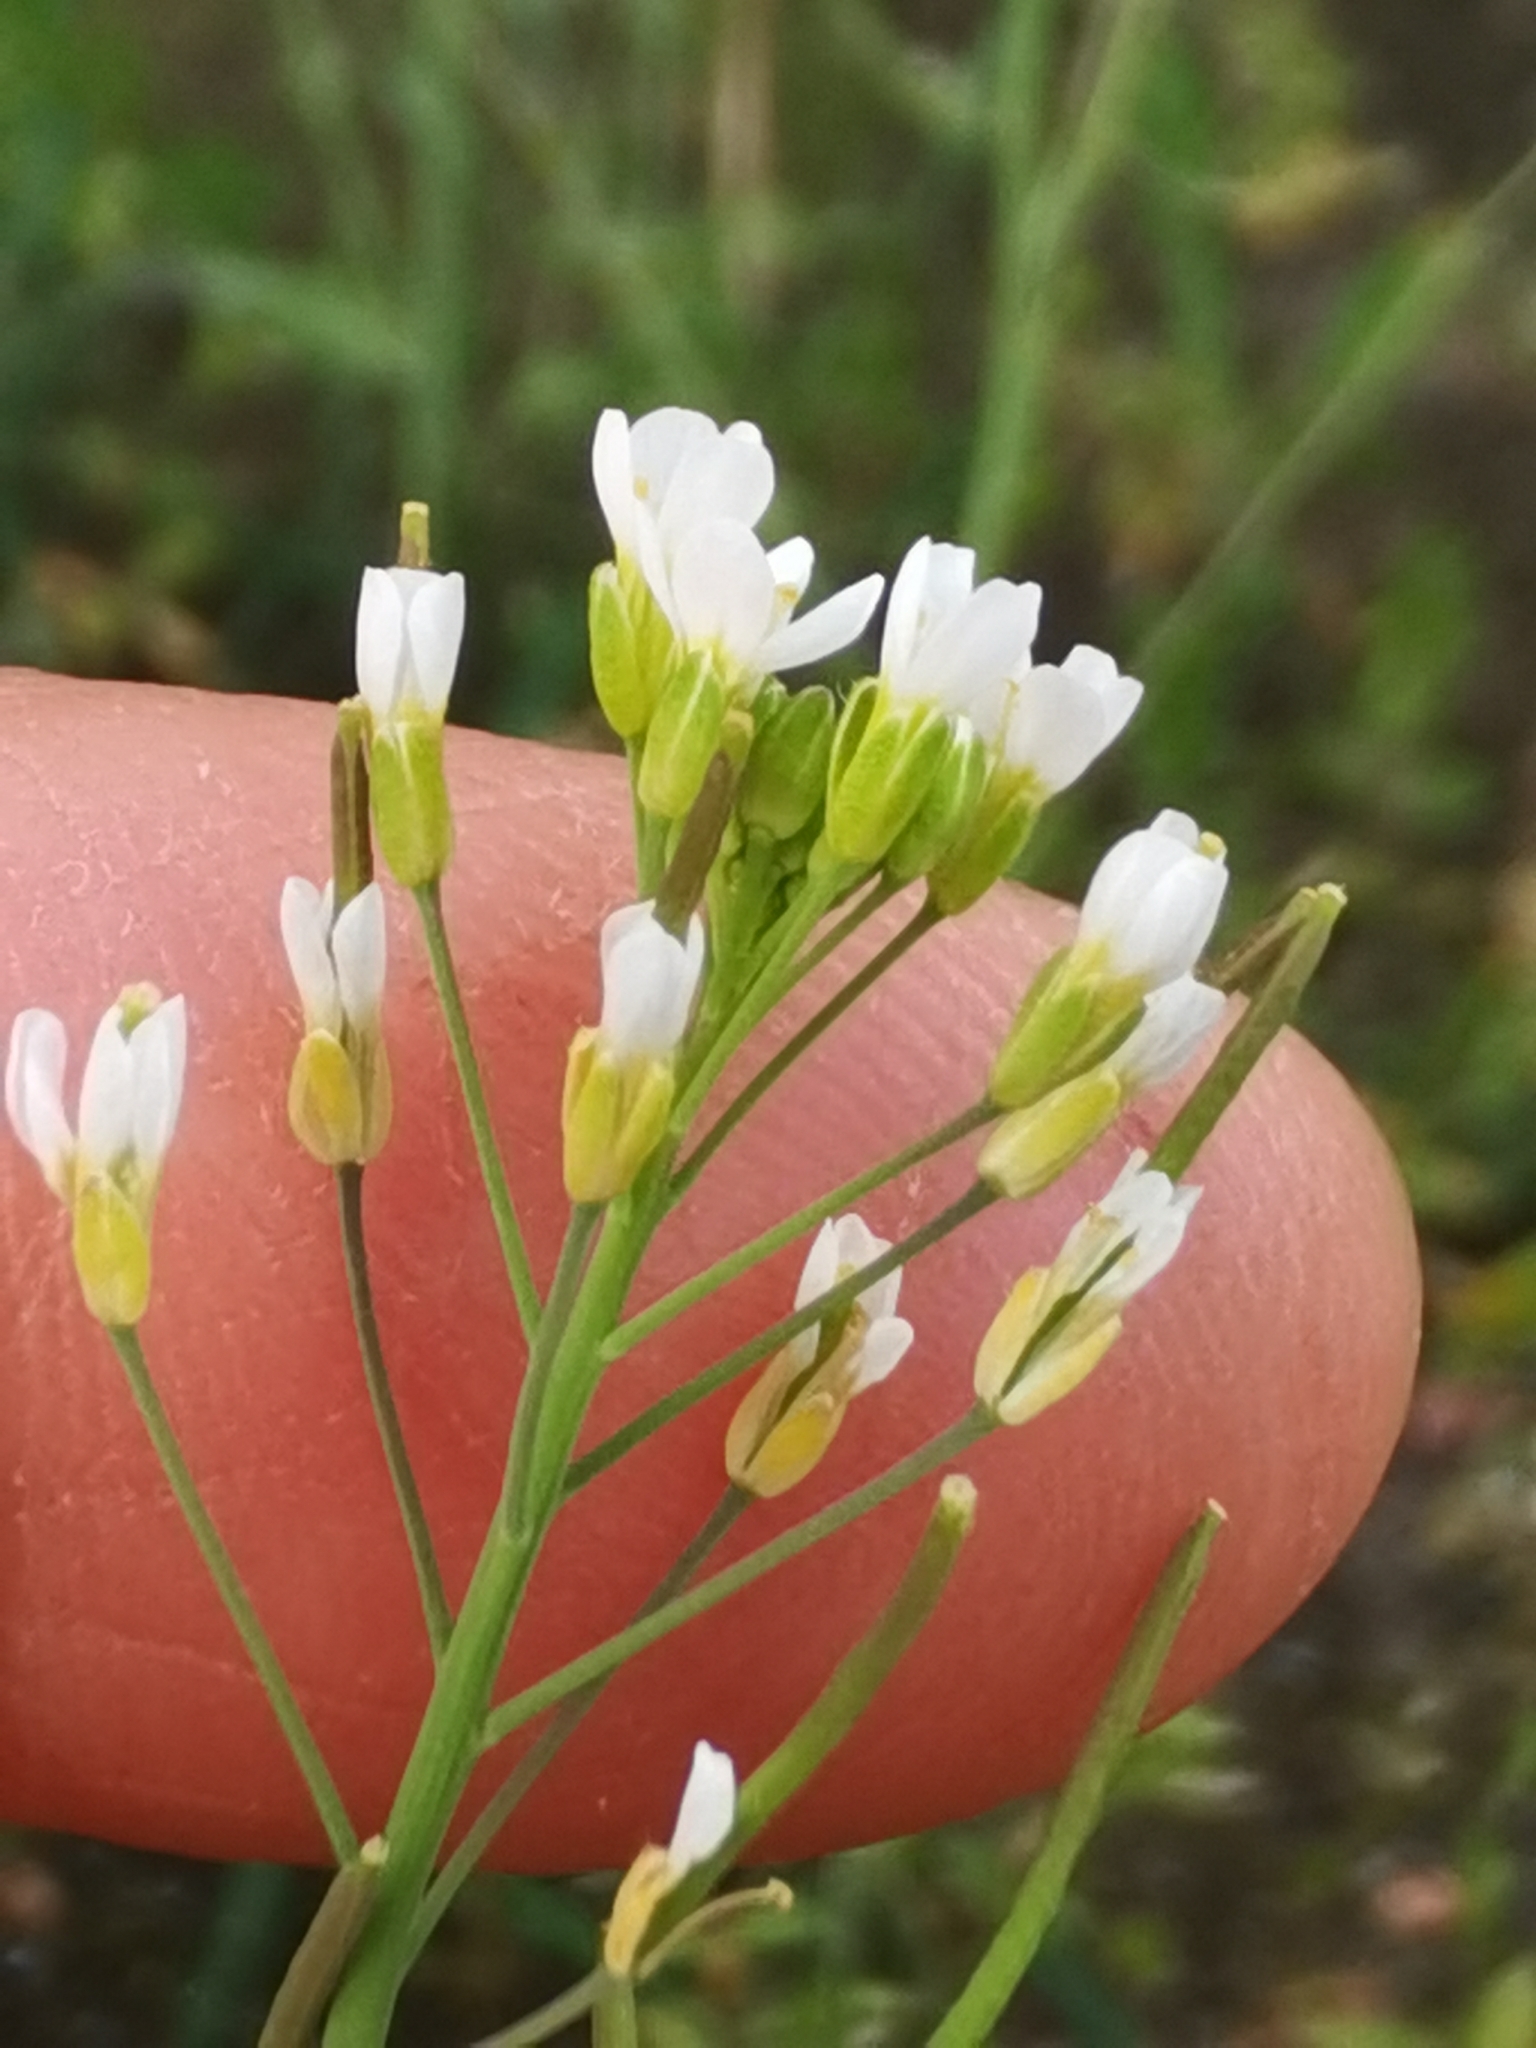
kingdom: Plantae
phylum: Tracheophyta
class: Magnoliopsida
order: Brassicales
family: Brassicaceae
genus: Arabidopsis
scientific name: Arabidopsis thaliana
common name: Thale cress
